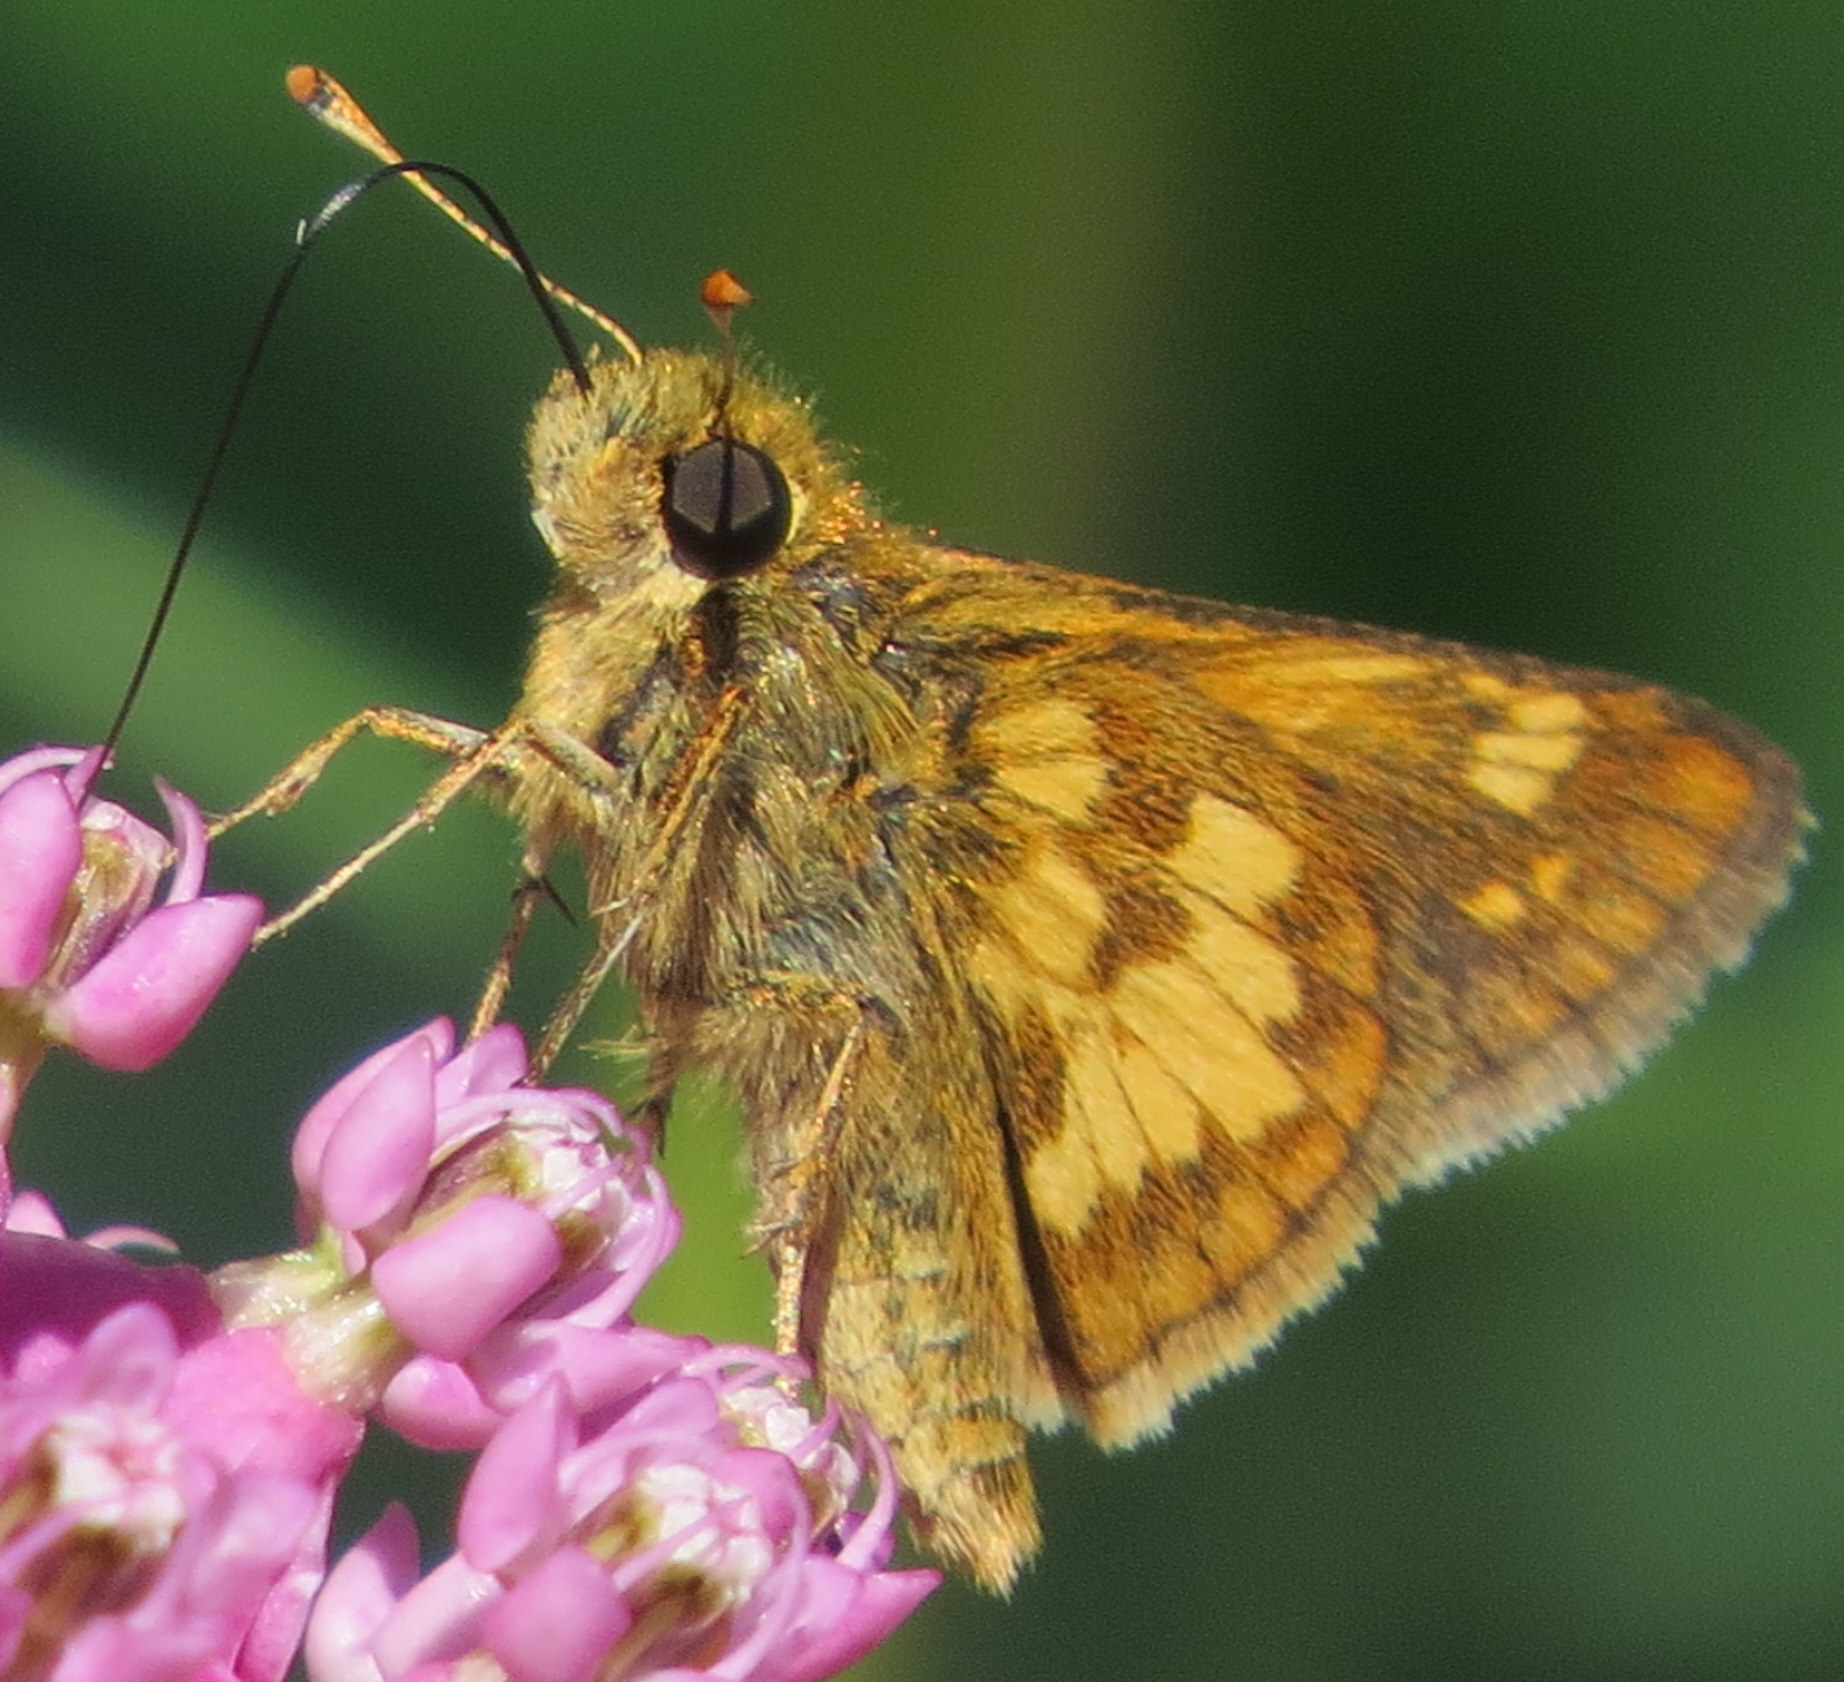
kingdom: Animalia
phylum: Arthropoda
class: Insecta
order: Lepidoptera
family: Hesperiidae
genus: Polites
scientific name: Polites coras
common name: Peck's skipper
